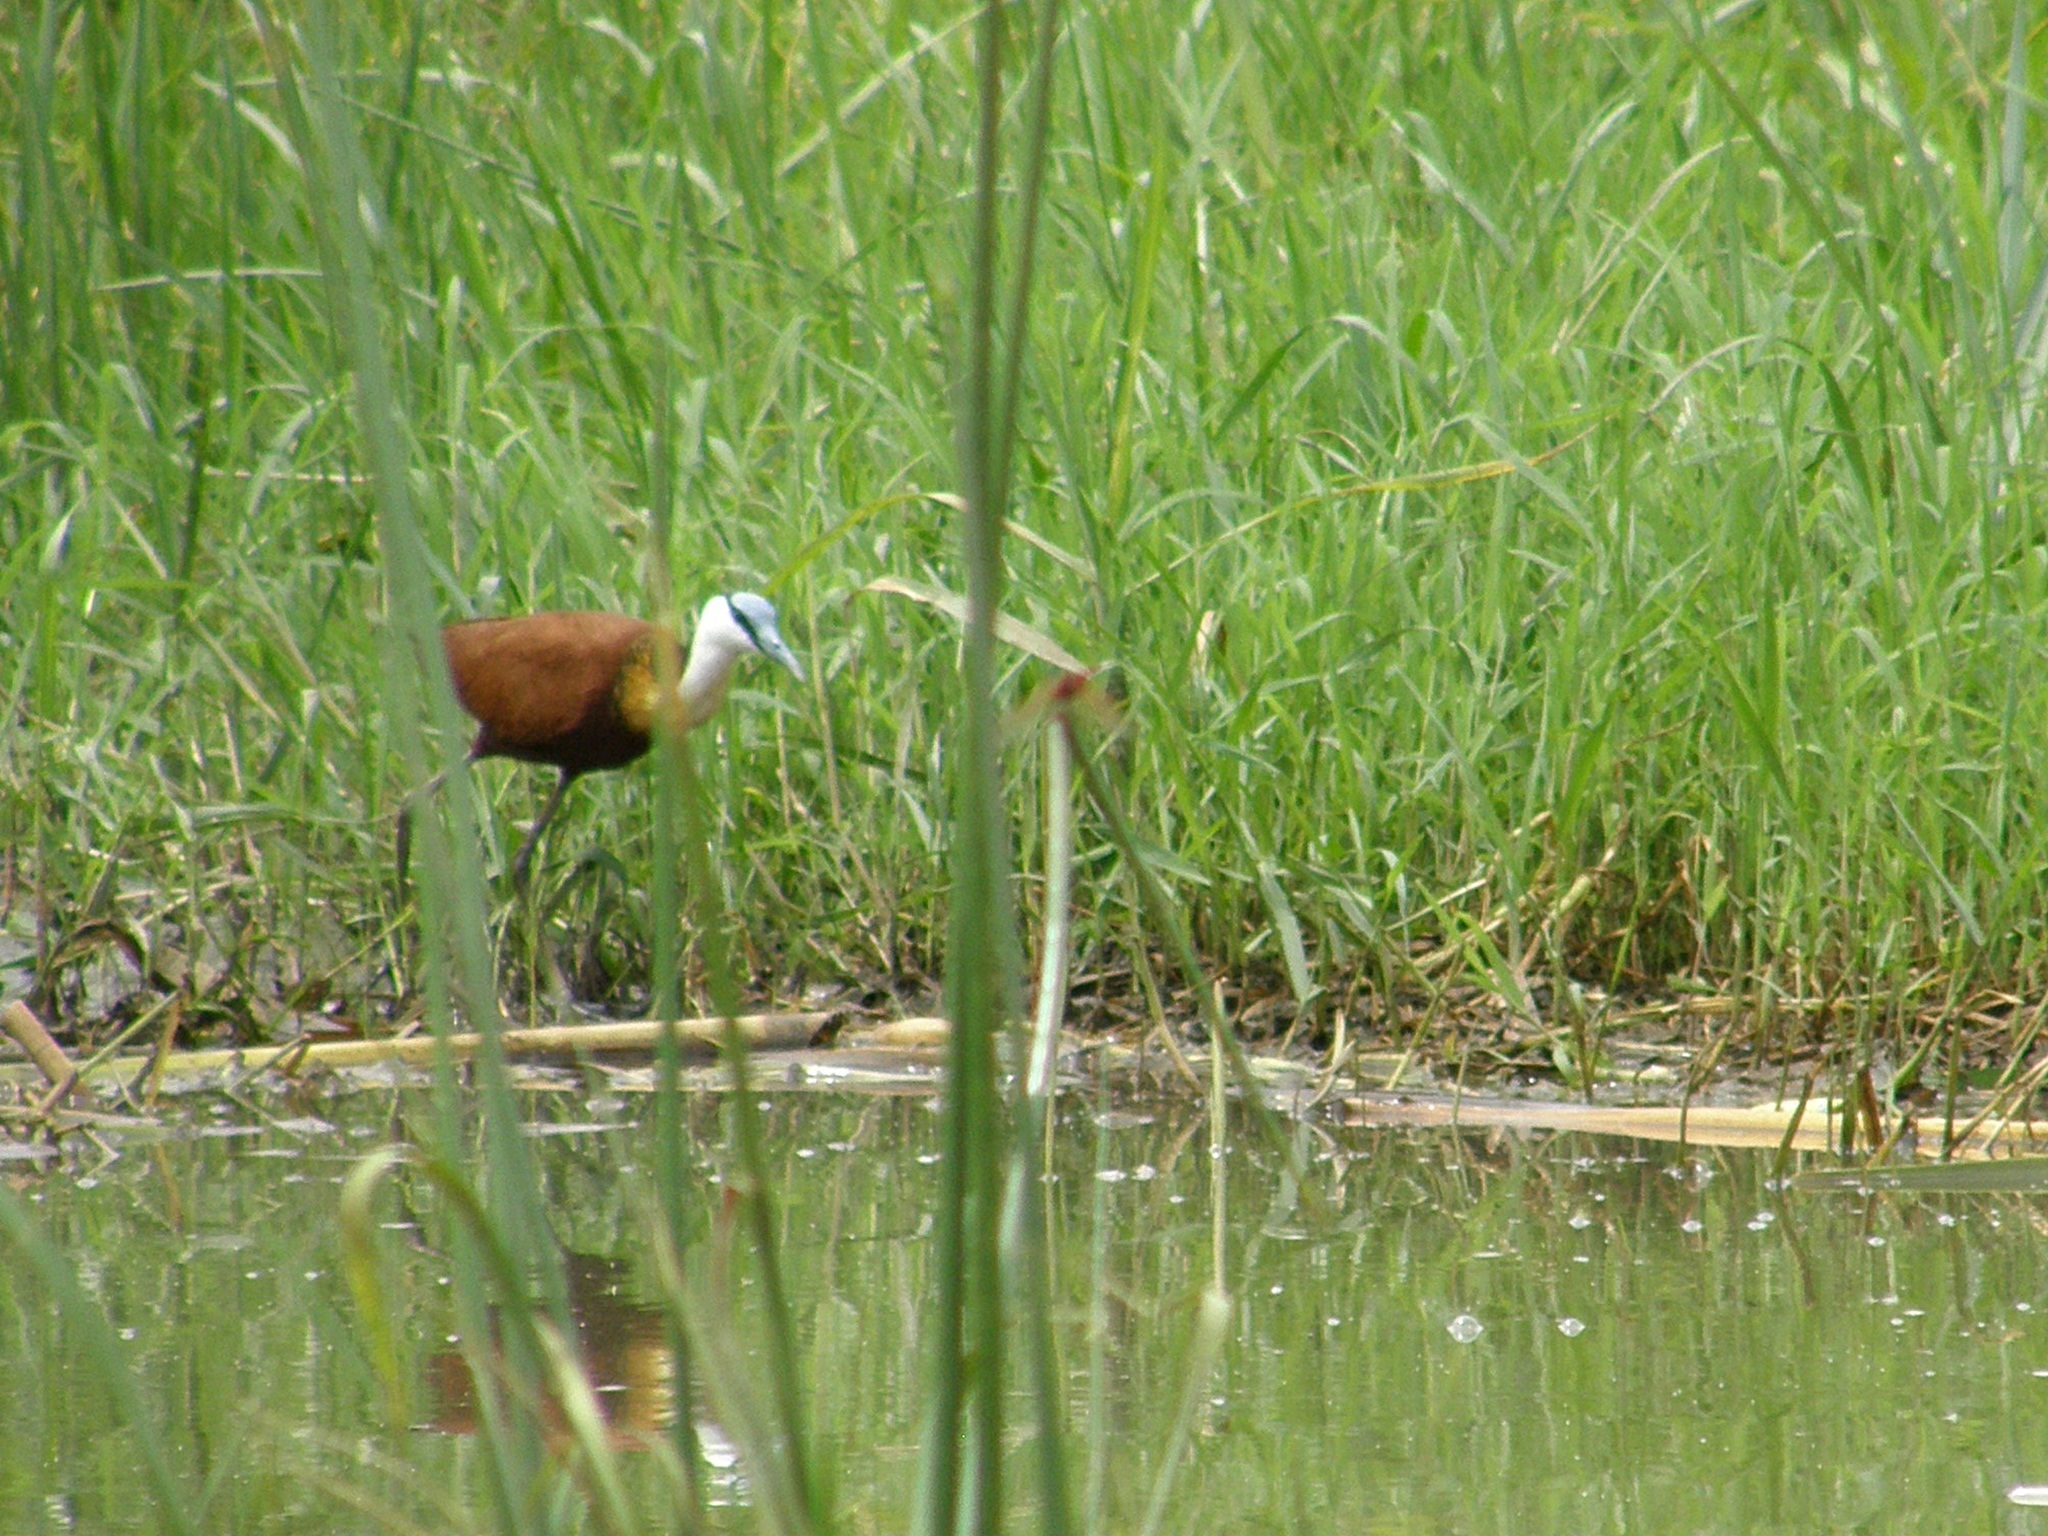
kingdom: Animalia
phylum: Chordata
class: Aves
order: Charadriiformes
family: Jacanidae
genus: Actophilornis
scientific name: Actophilornis africanus
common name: African jacana
